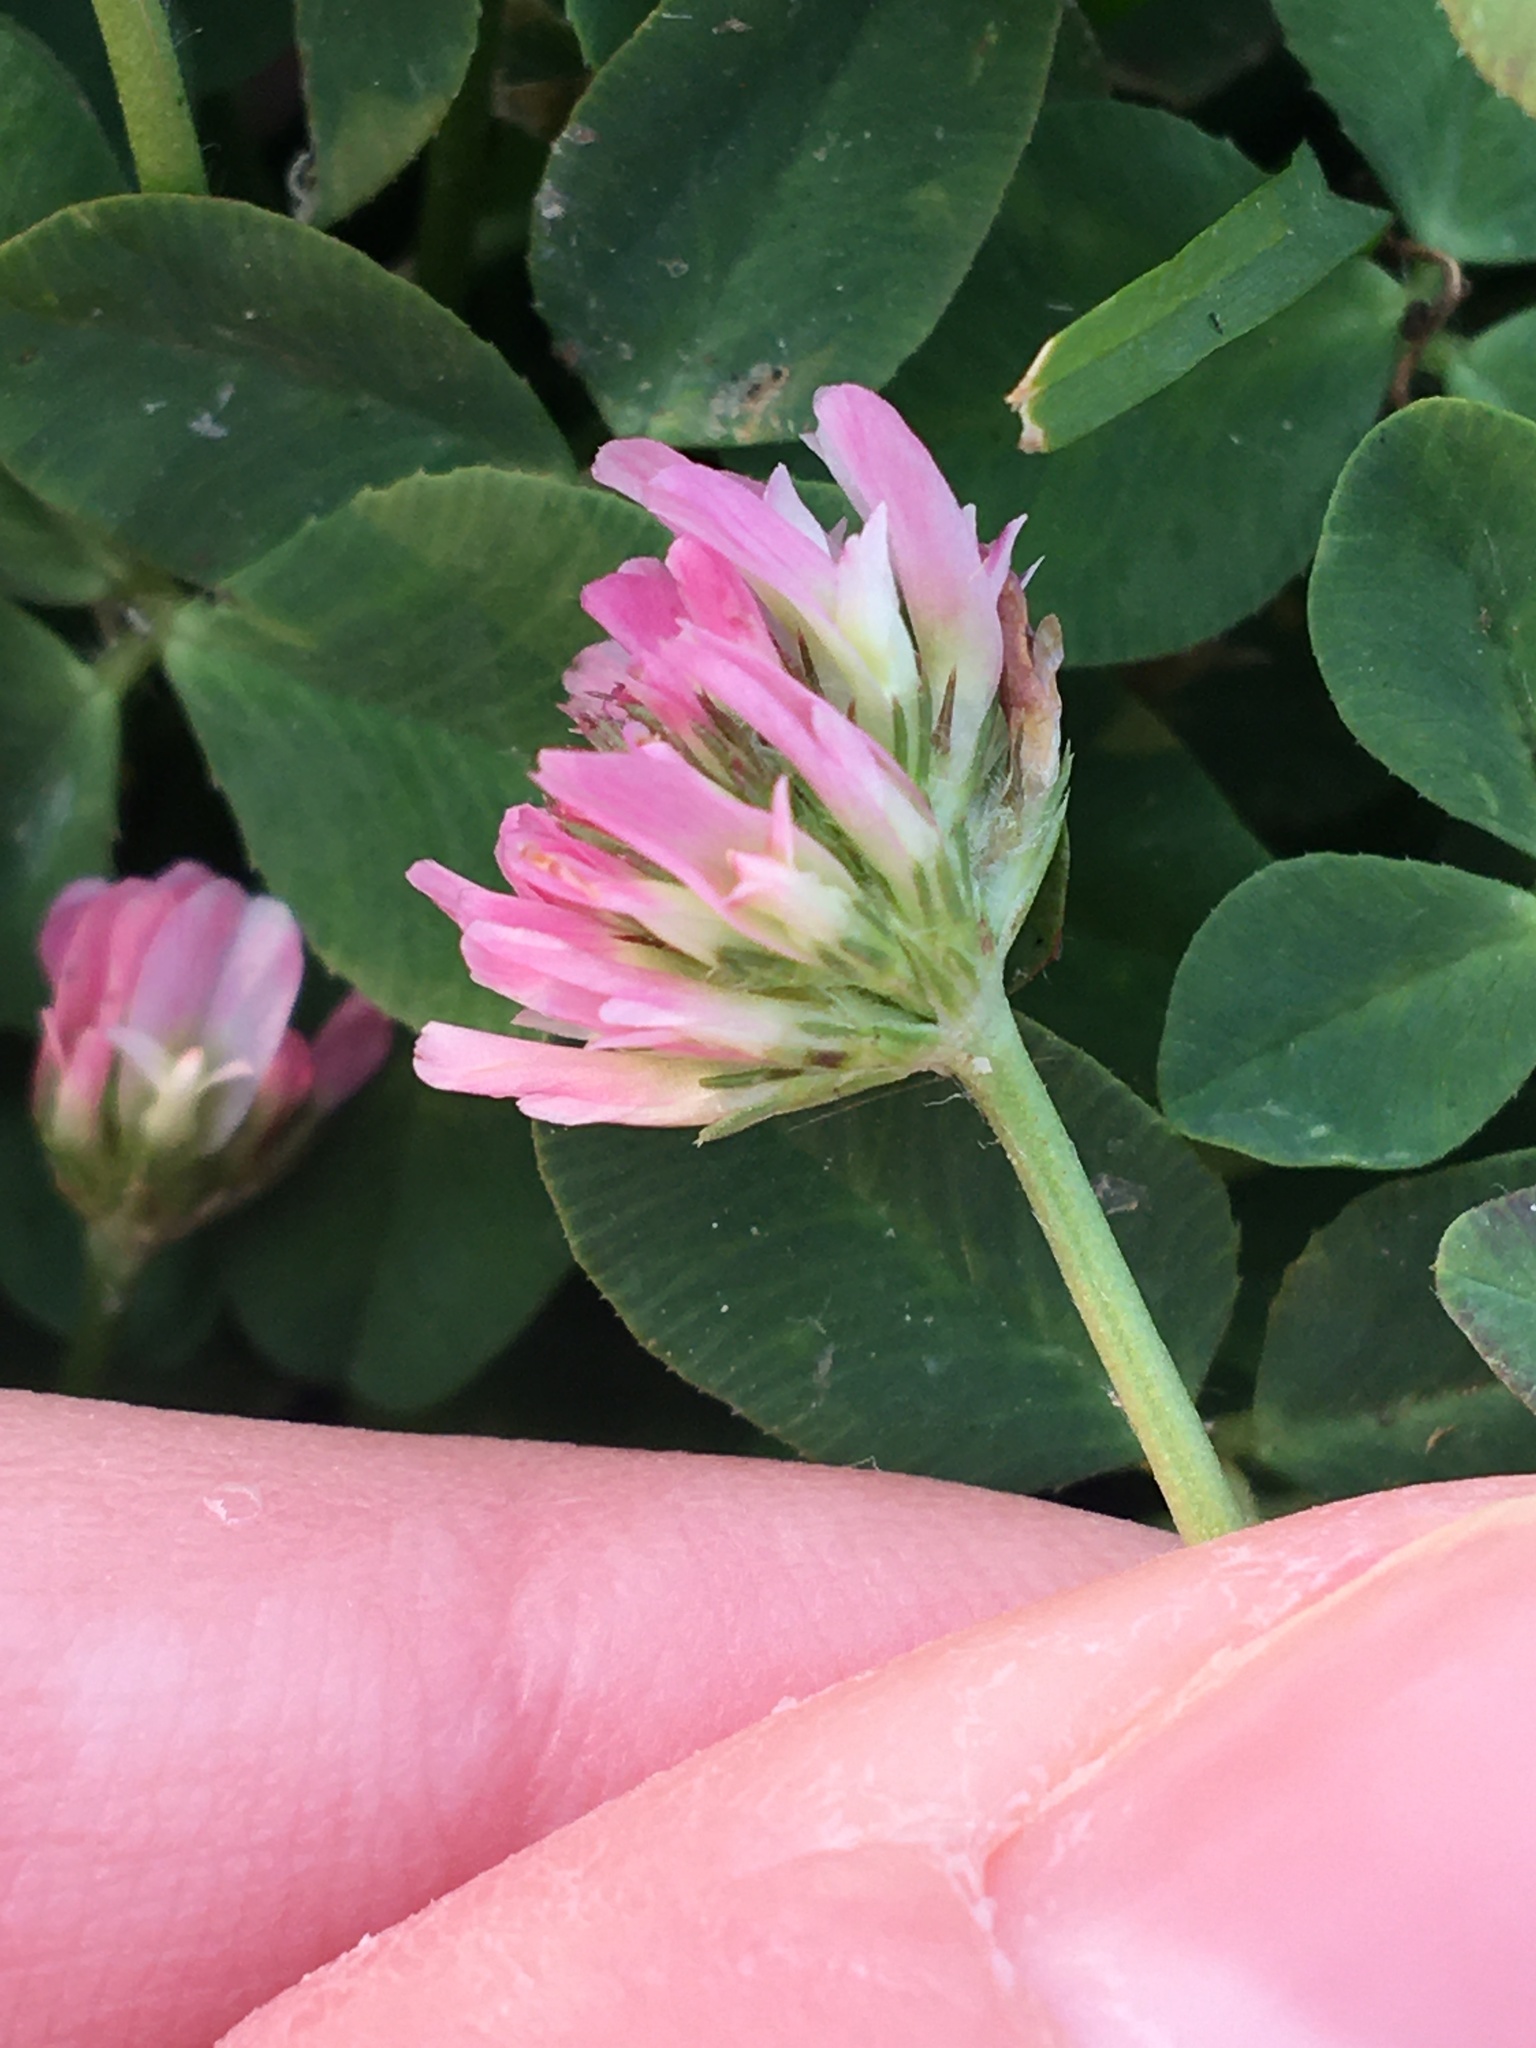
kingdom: Plantae
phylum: Tracheophyta
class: Magnoliopsida
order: Fabales
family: Fabaceae
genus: Trifolium
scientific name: Trifolium fragiferum
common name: Strawberry clover
